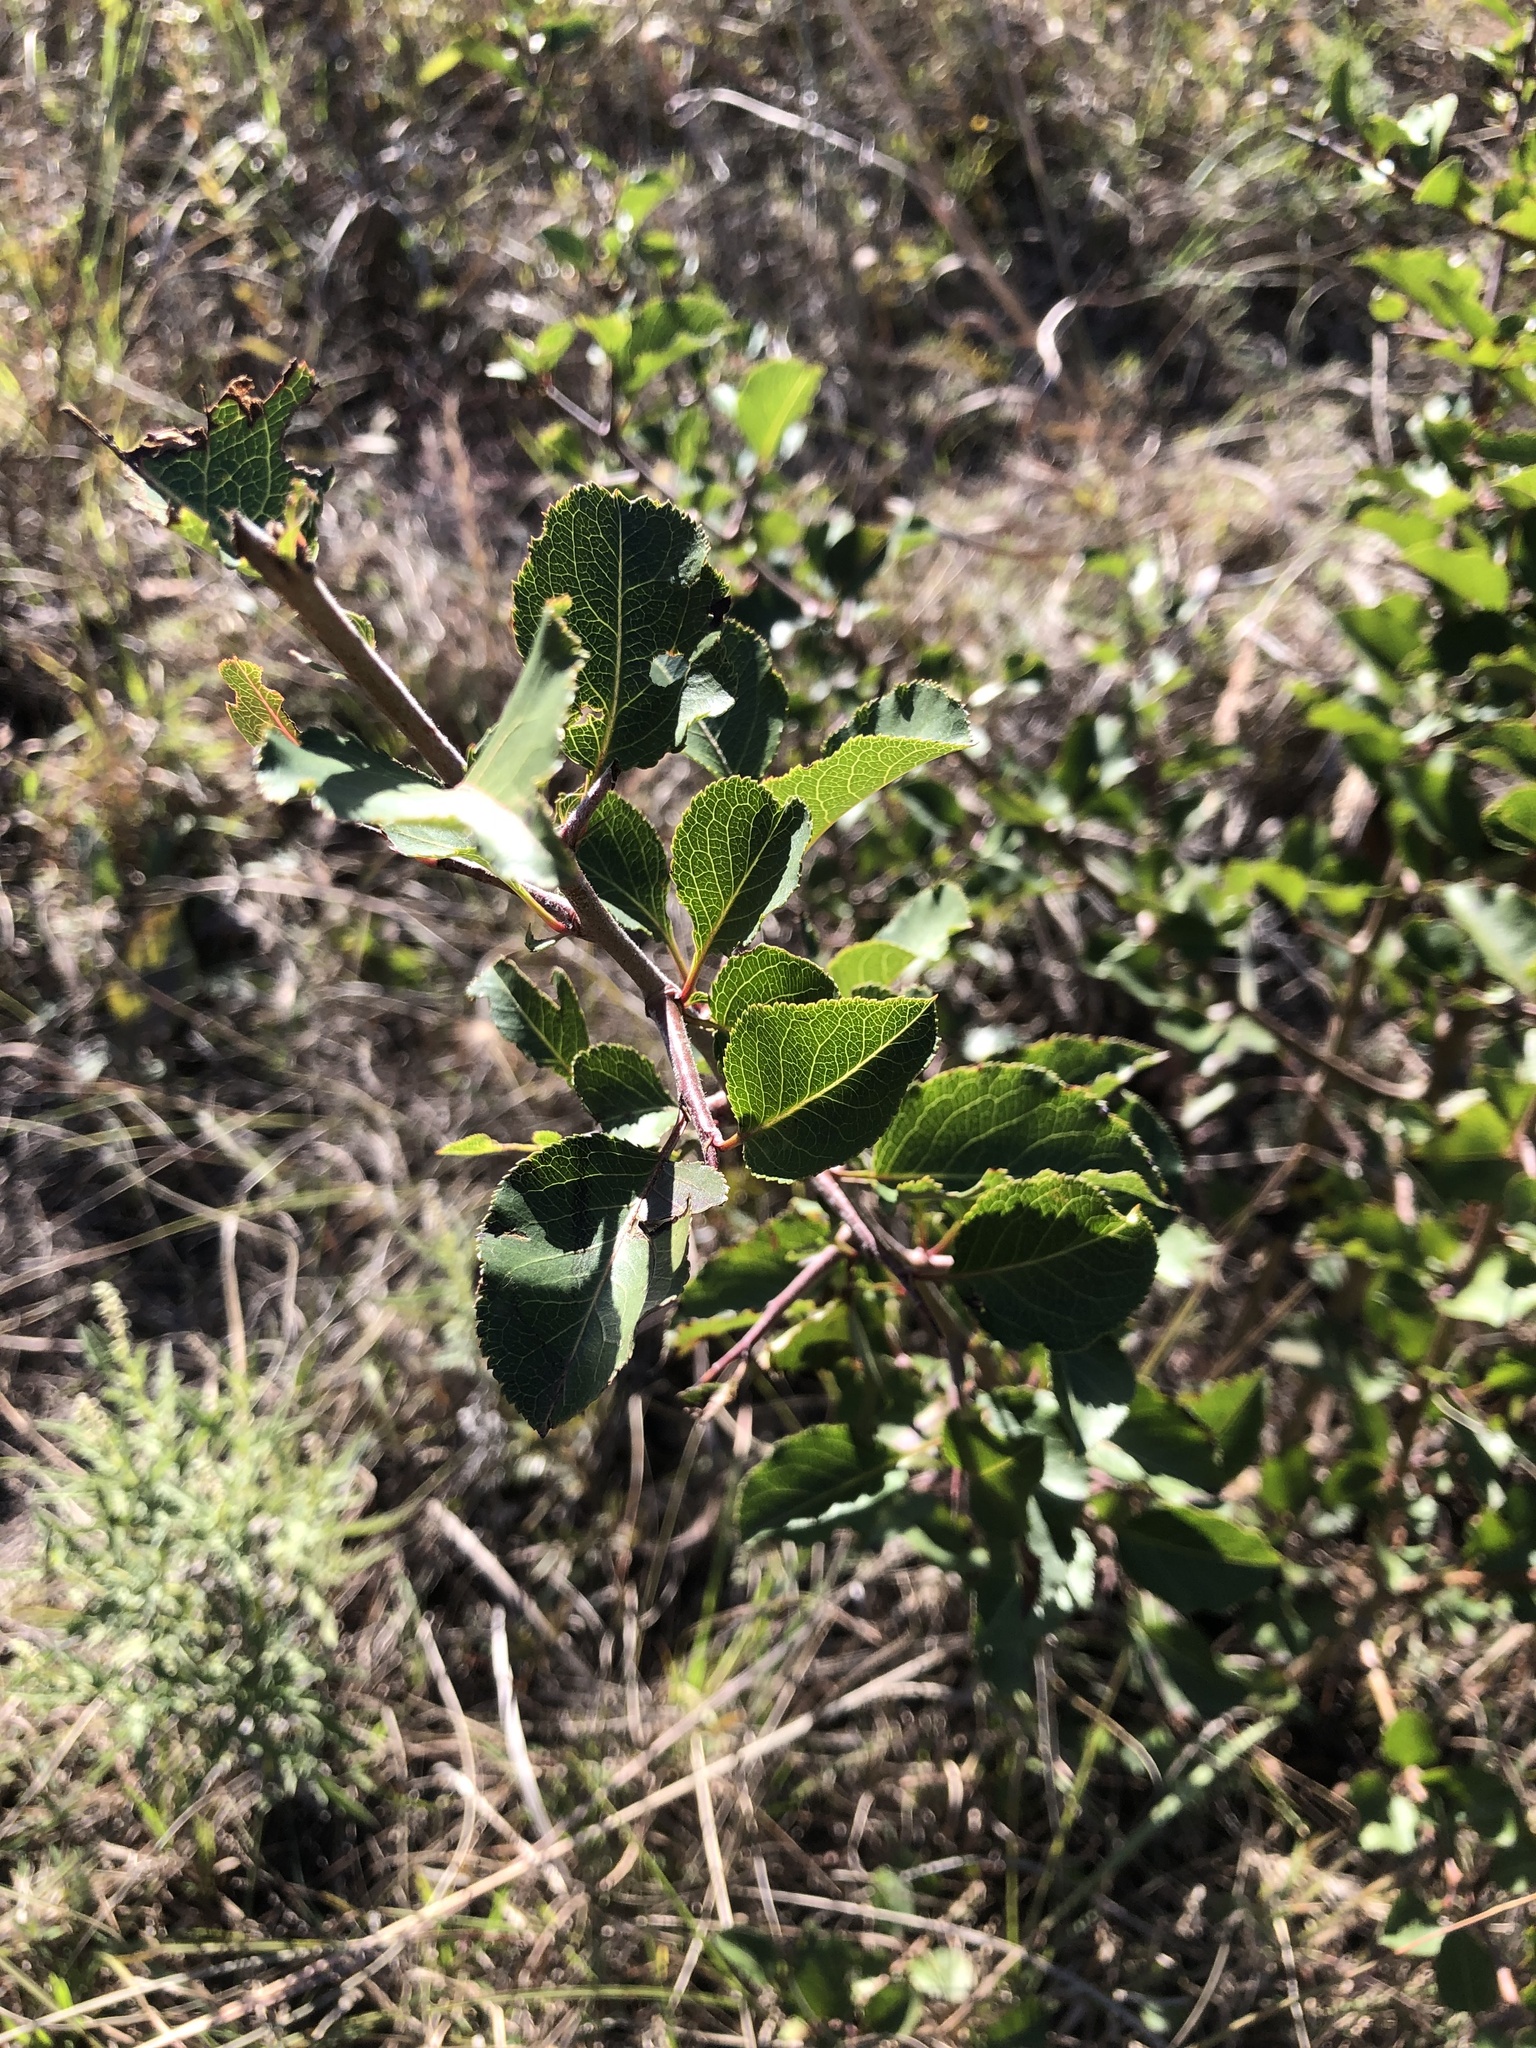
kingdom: Plantae
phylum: Tracheophyta
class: Magnoliopsida
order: Rosales
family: Rosaceae
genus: Pyrus
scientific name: Pyrus calleryana
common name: Callery pear
